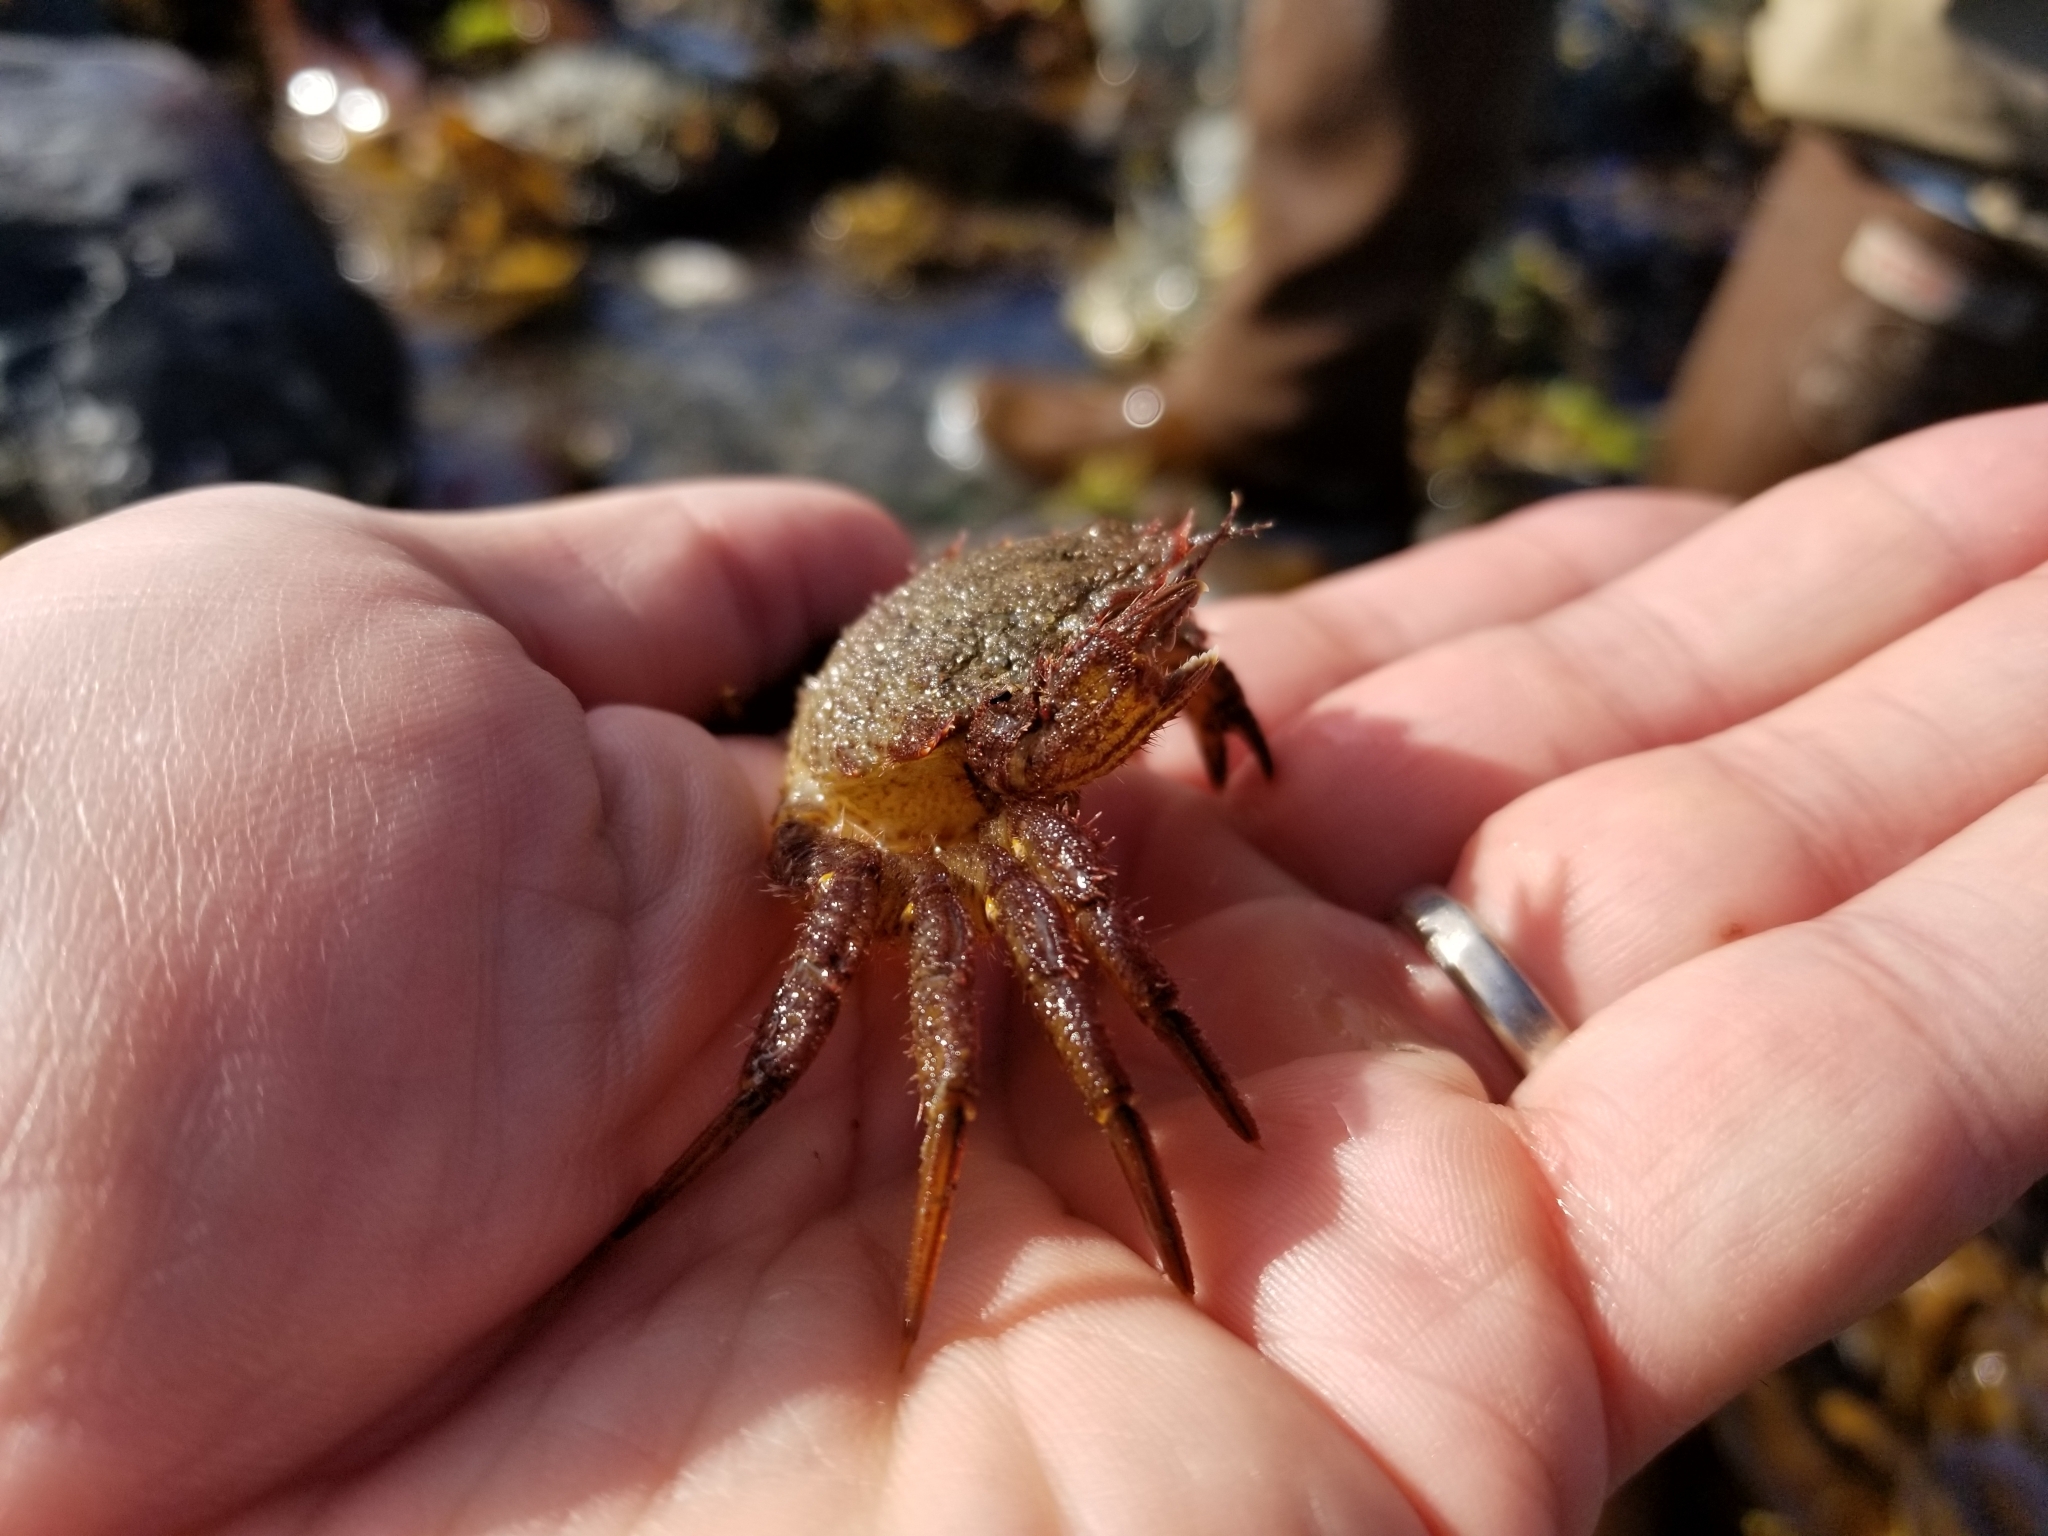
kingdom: Animalia
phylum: Arthropoda
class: Malacostraca
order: Decapoda
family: Cheiragonidae
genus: Telmessus
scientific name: Telmessus cheiragonus
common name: Helmet crab
